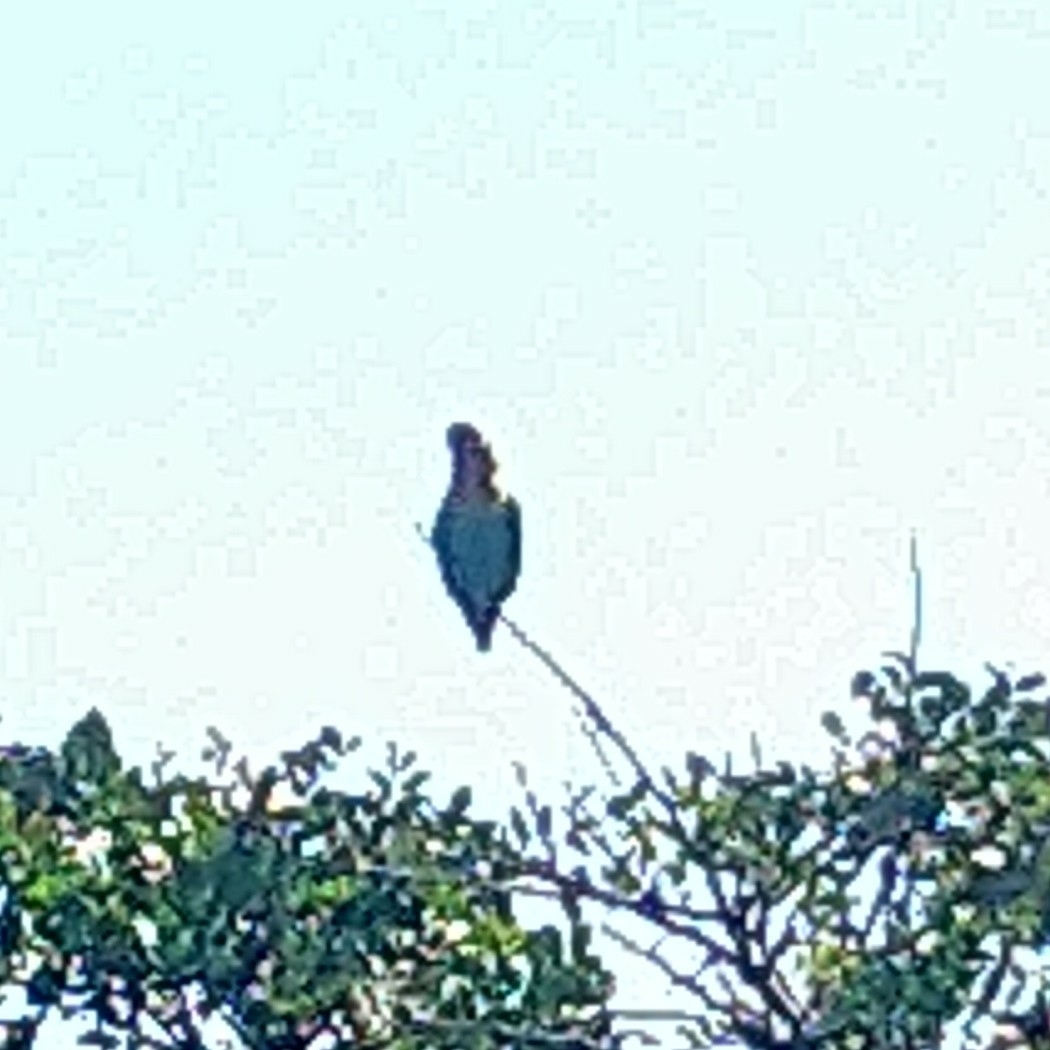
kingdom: Animalia
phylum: Chordata
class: Aves
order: Psittaciformes
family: Psittacidae
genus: Poicephalus
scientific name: Poicephalus robustus
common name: Cape parrot
